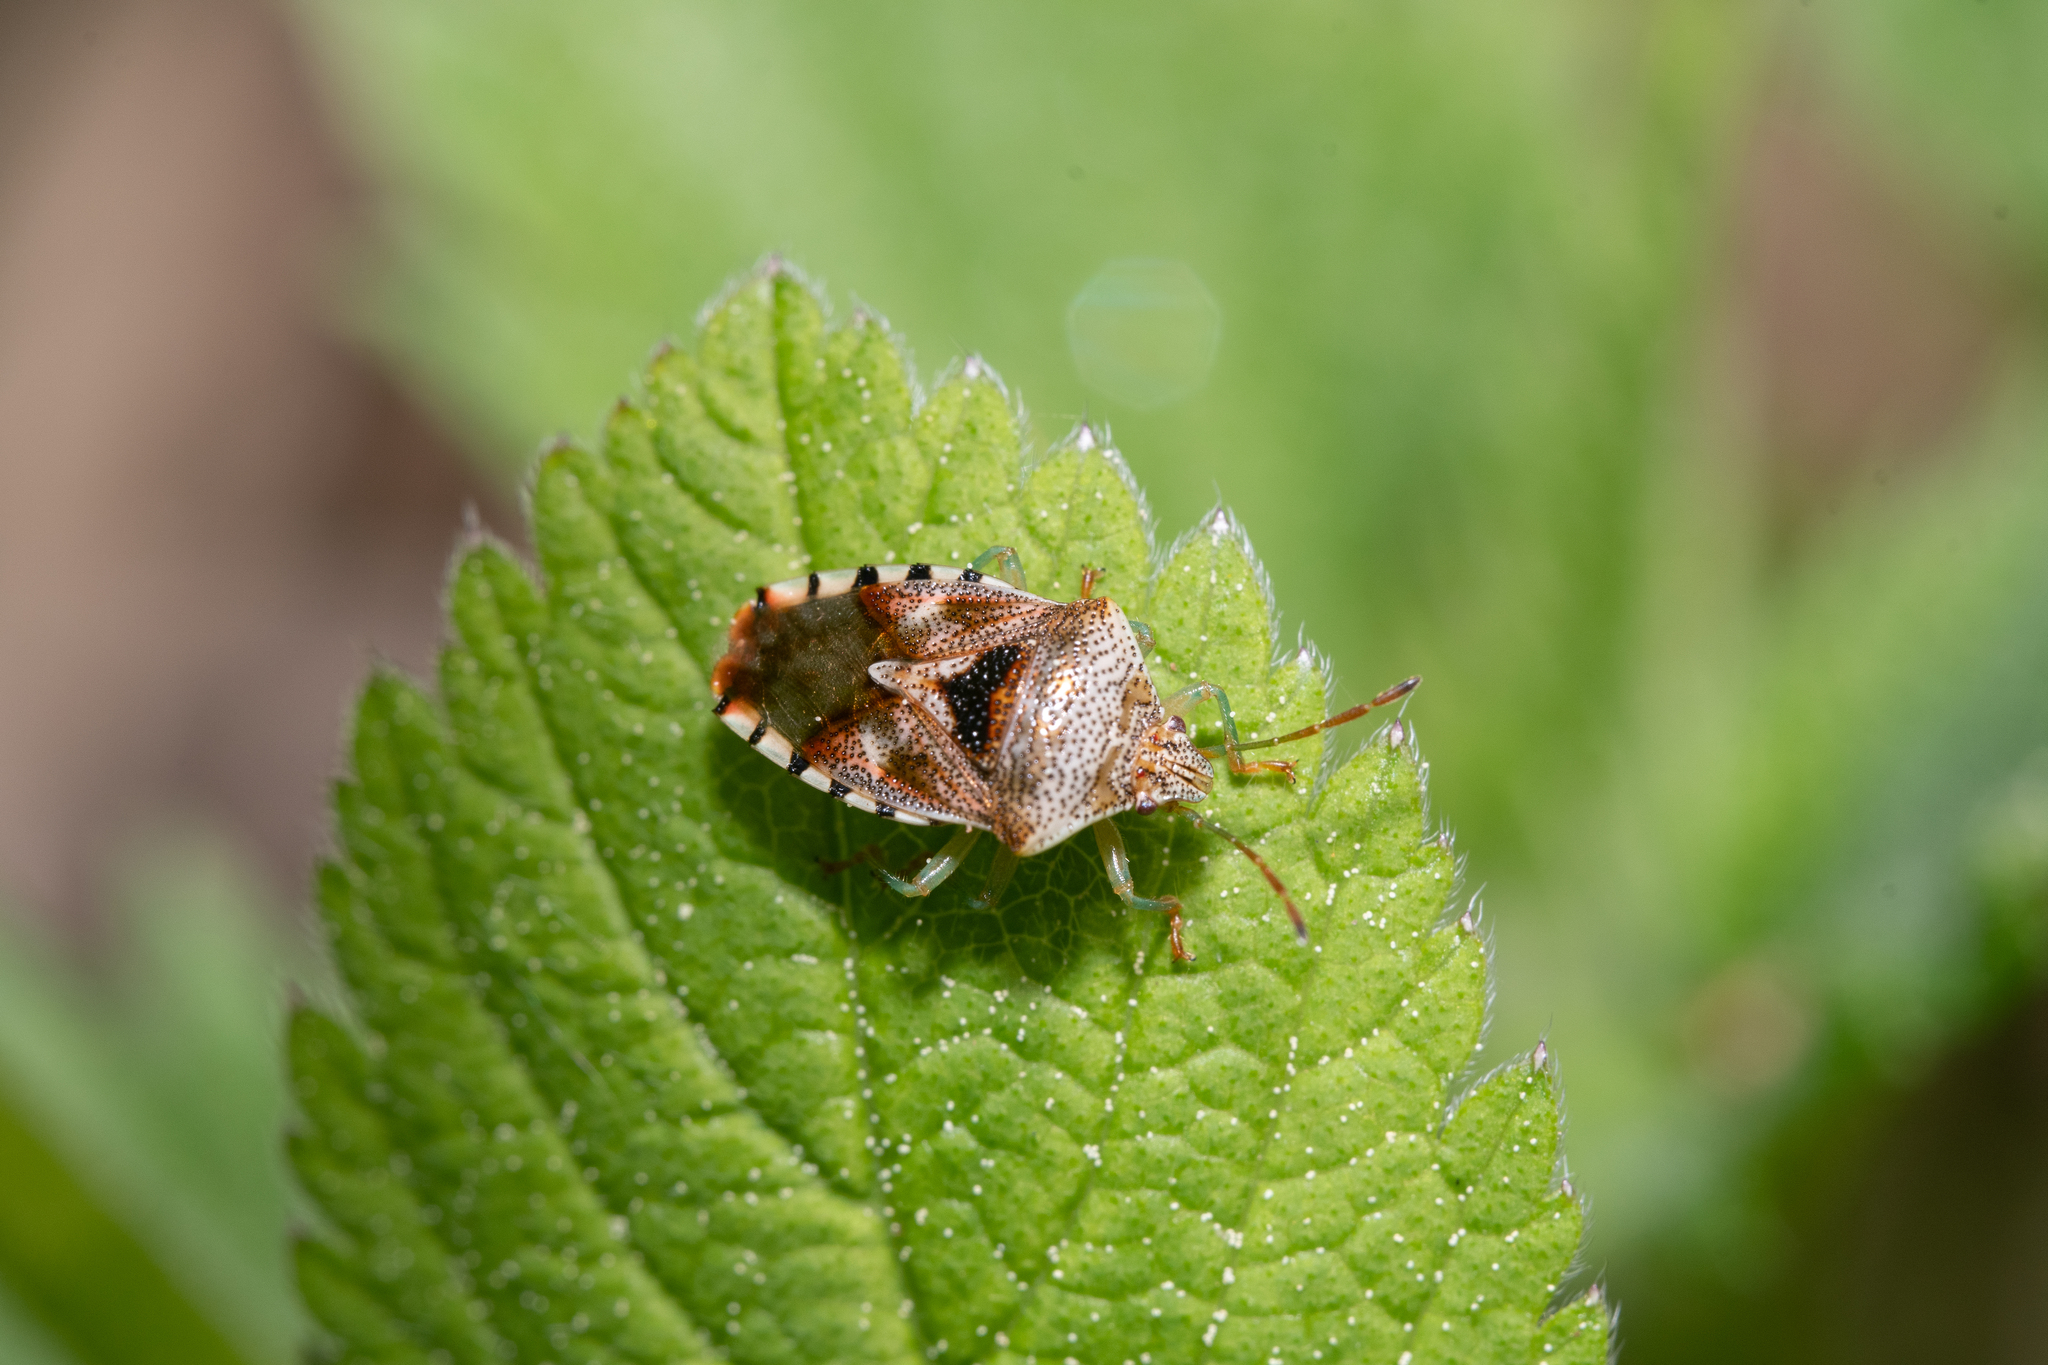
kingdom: Animalia
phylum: Arthropoda
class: Insecta
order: Hemiptera
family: Acanthosomatidae
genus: Elasmucha
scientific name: Elasmucha grisea
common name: Parent bug
